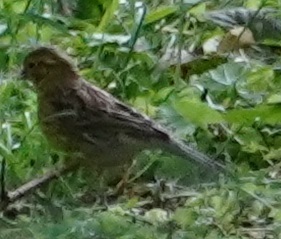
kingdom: Animalia
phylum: Chordata
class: Aves
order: Passeriformes
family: Emberizidae
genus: Emberiza
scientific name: Emberiza citrinella
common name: Yellowhammer
